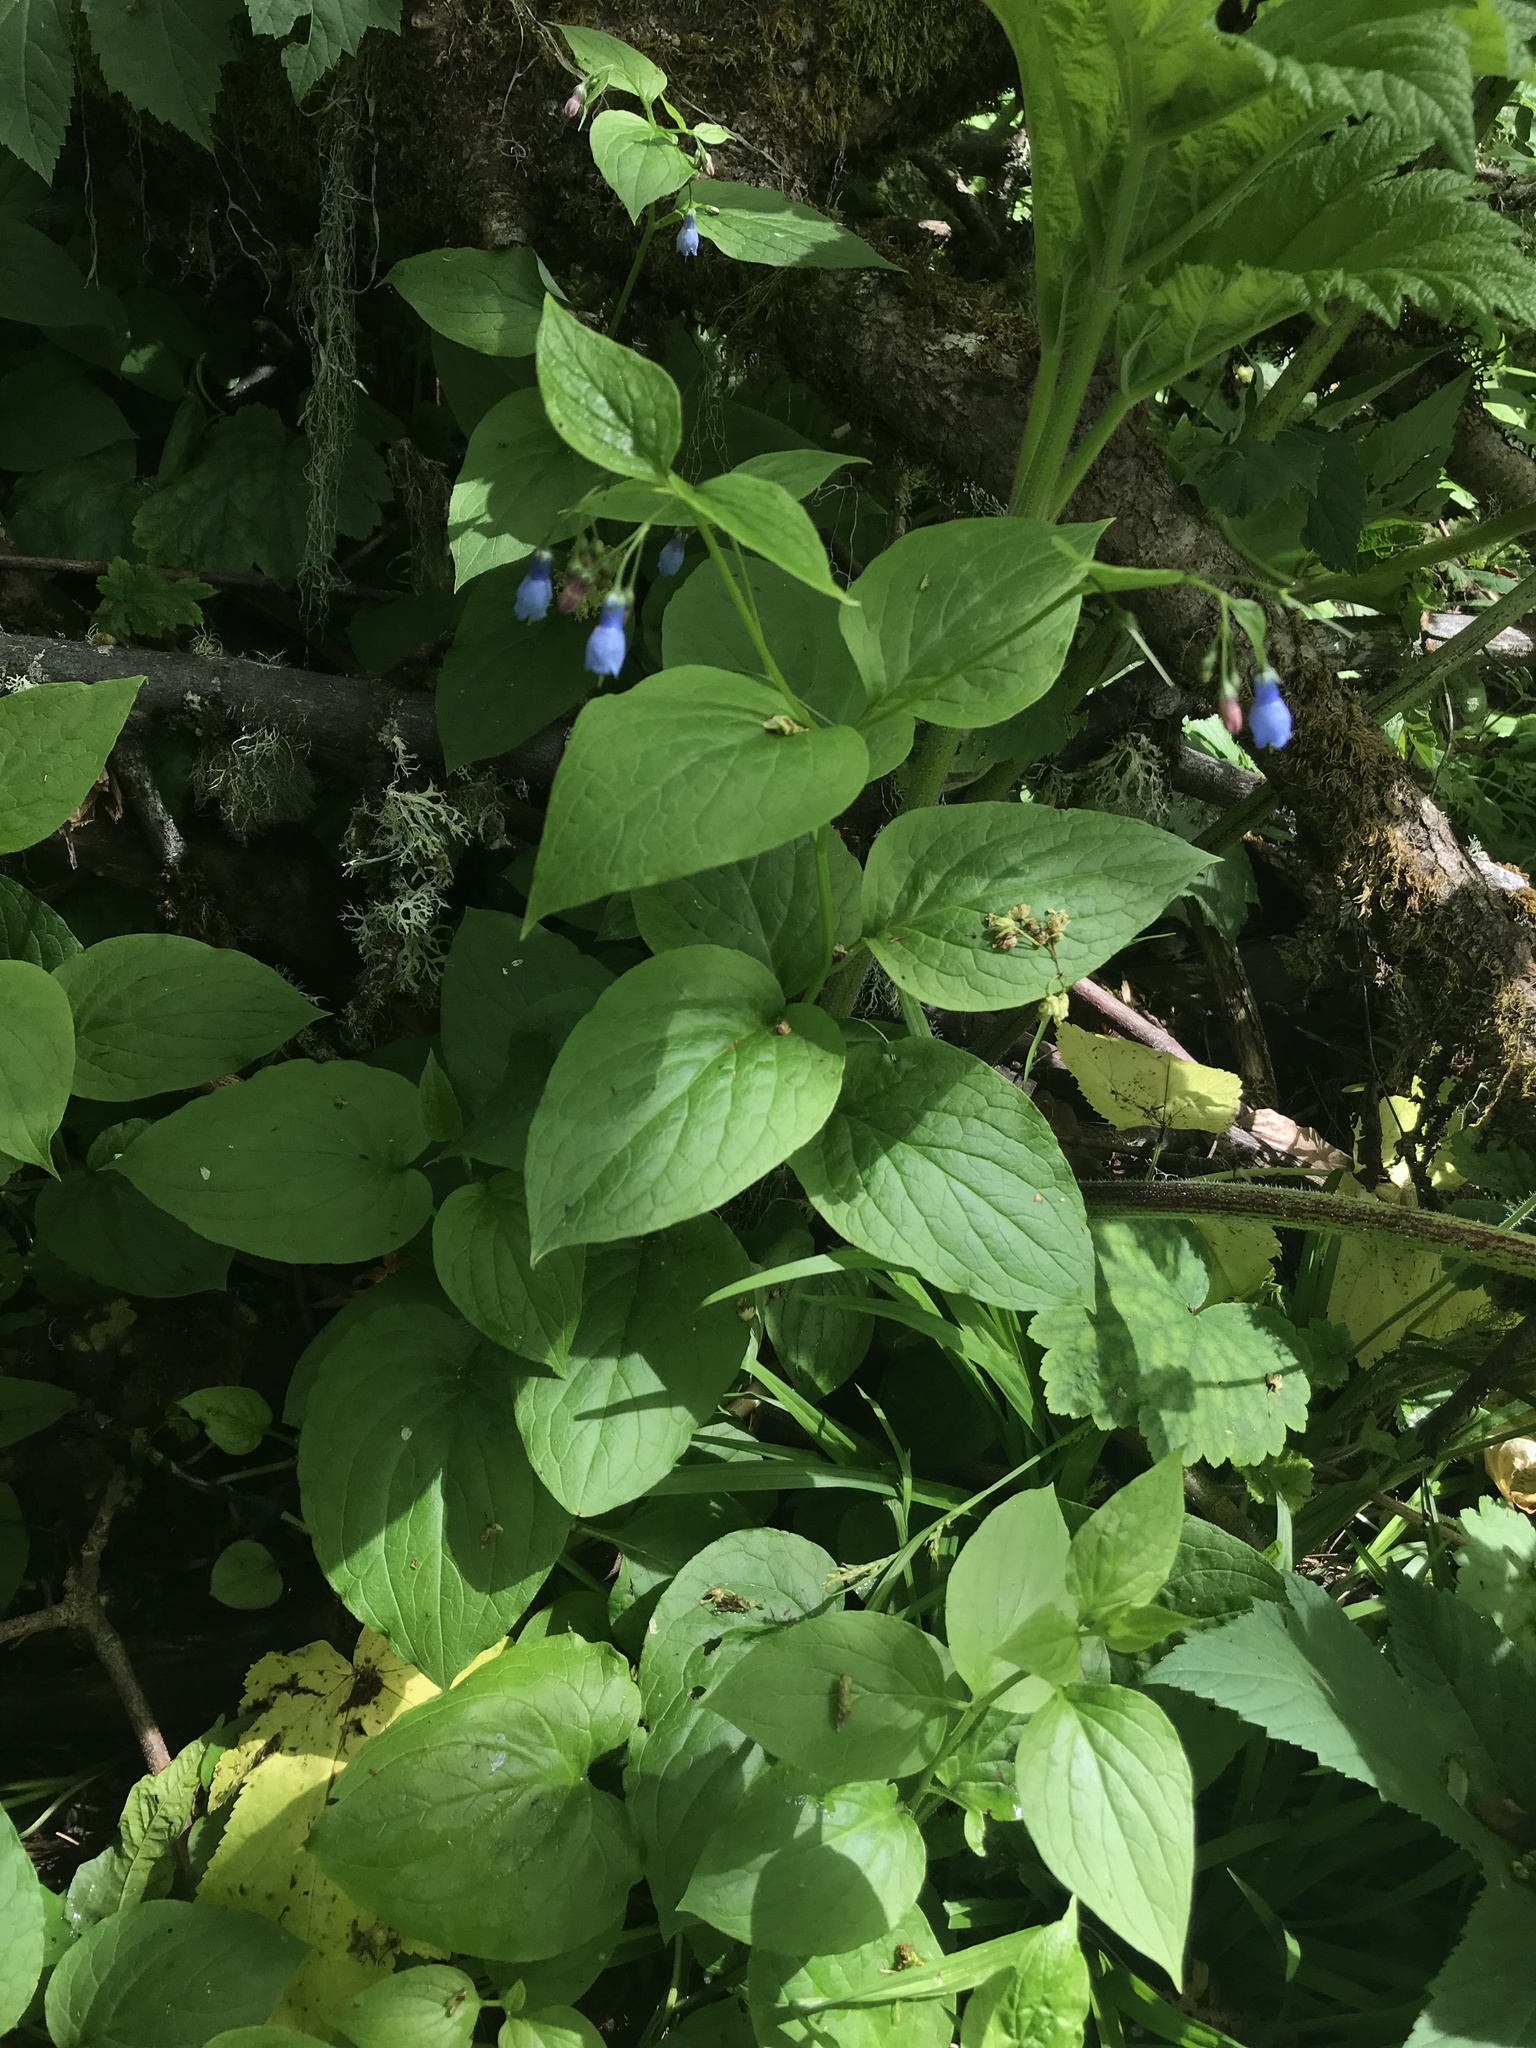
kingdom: Plantae
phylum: Tracheophyta
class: Magnoliopsida
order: Boraginales
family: Boraginaceae
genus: Mertensia
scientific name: Mertensia subcordata
